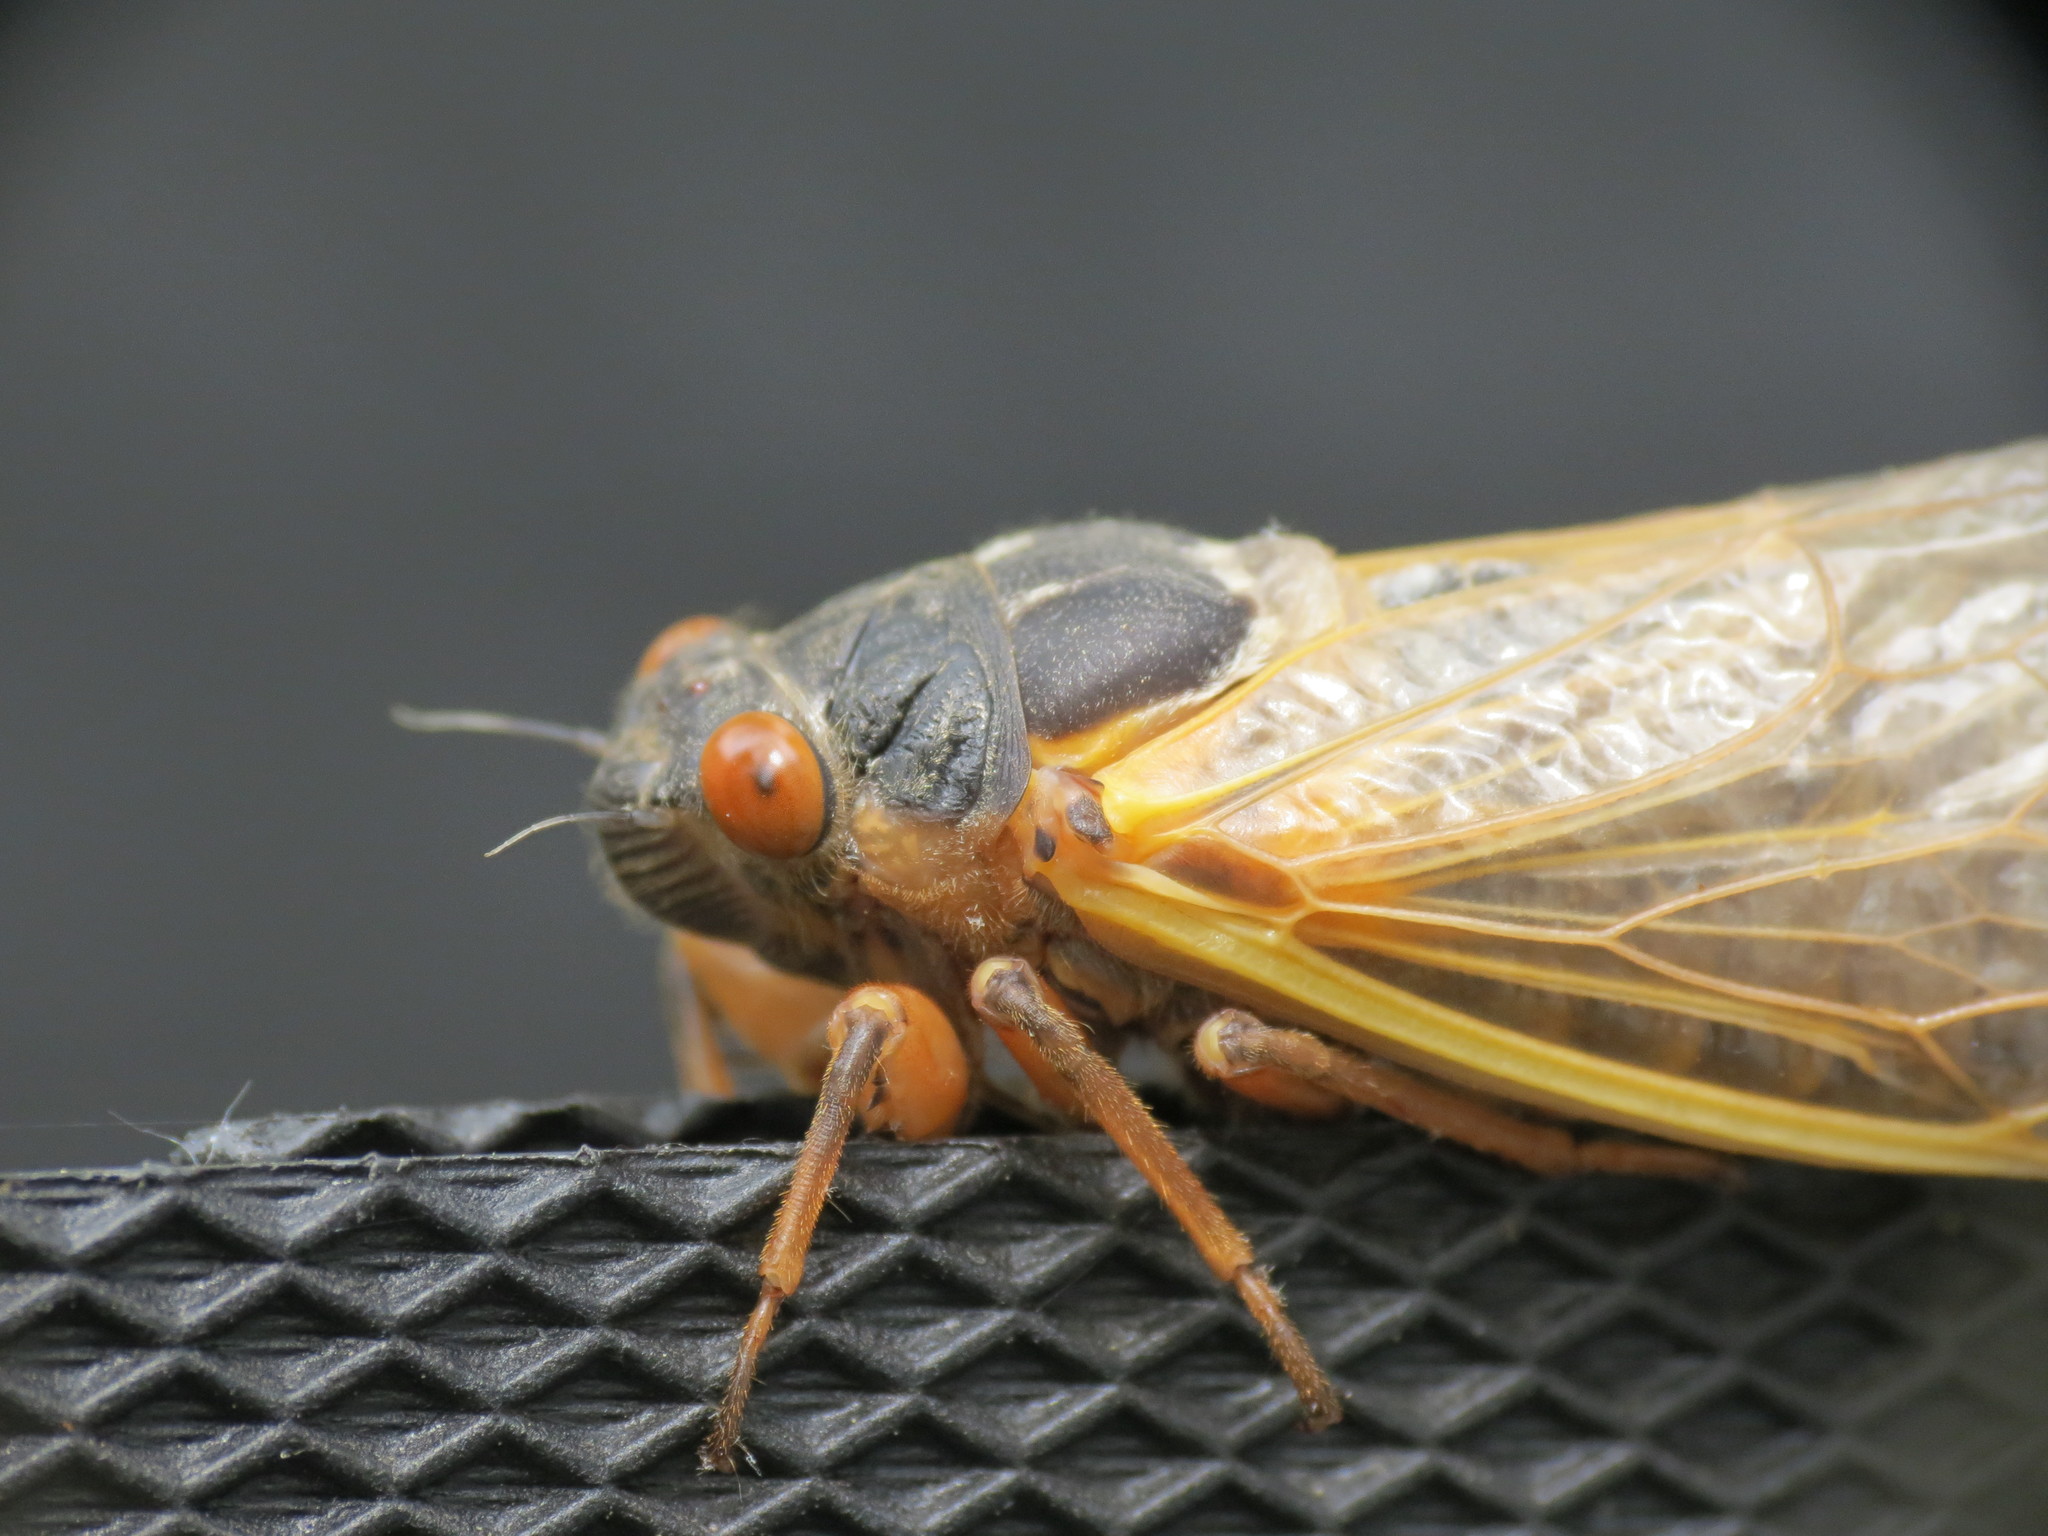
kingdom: Animalia
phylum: Arthropoda
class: Insecta
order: Hemiptera
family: Cicadidae
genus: Magicicada
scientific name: Magicicada septendecim
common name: Periodical cicada
